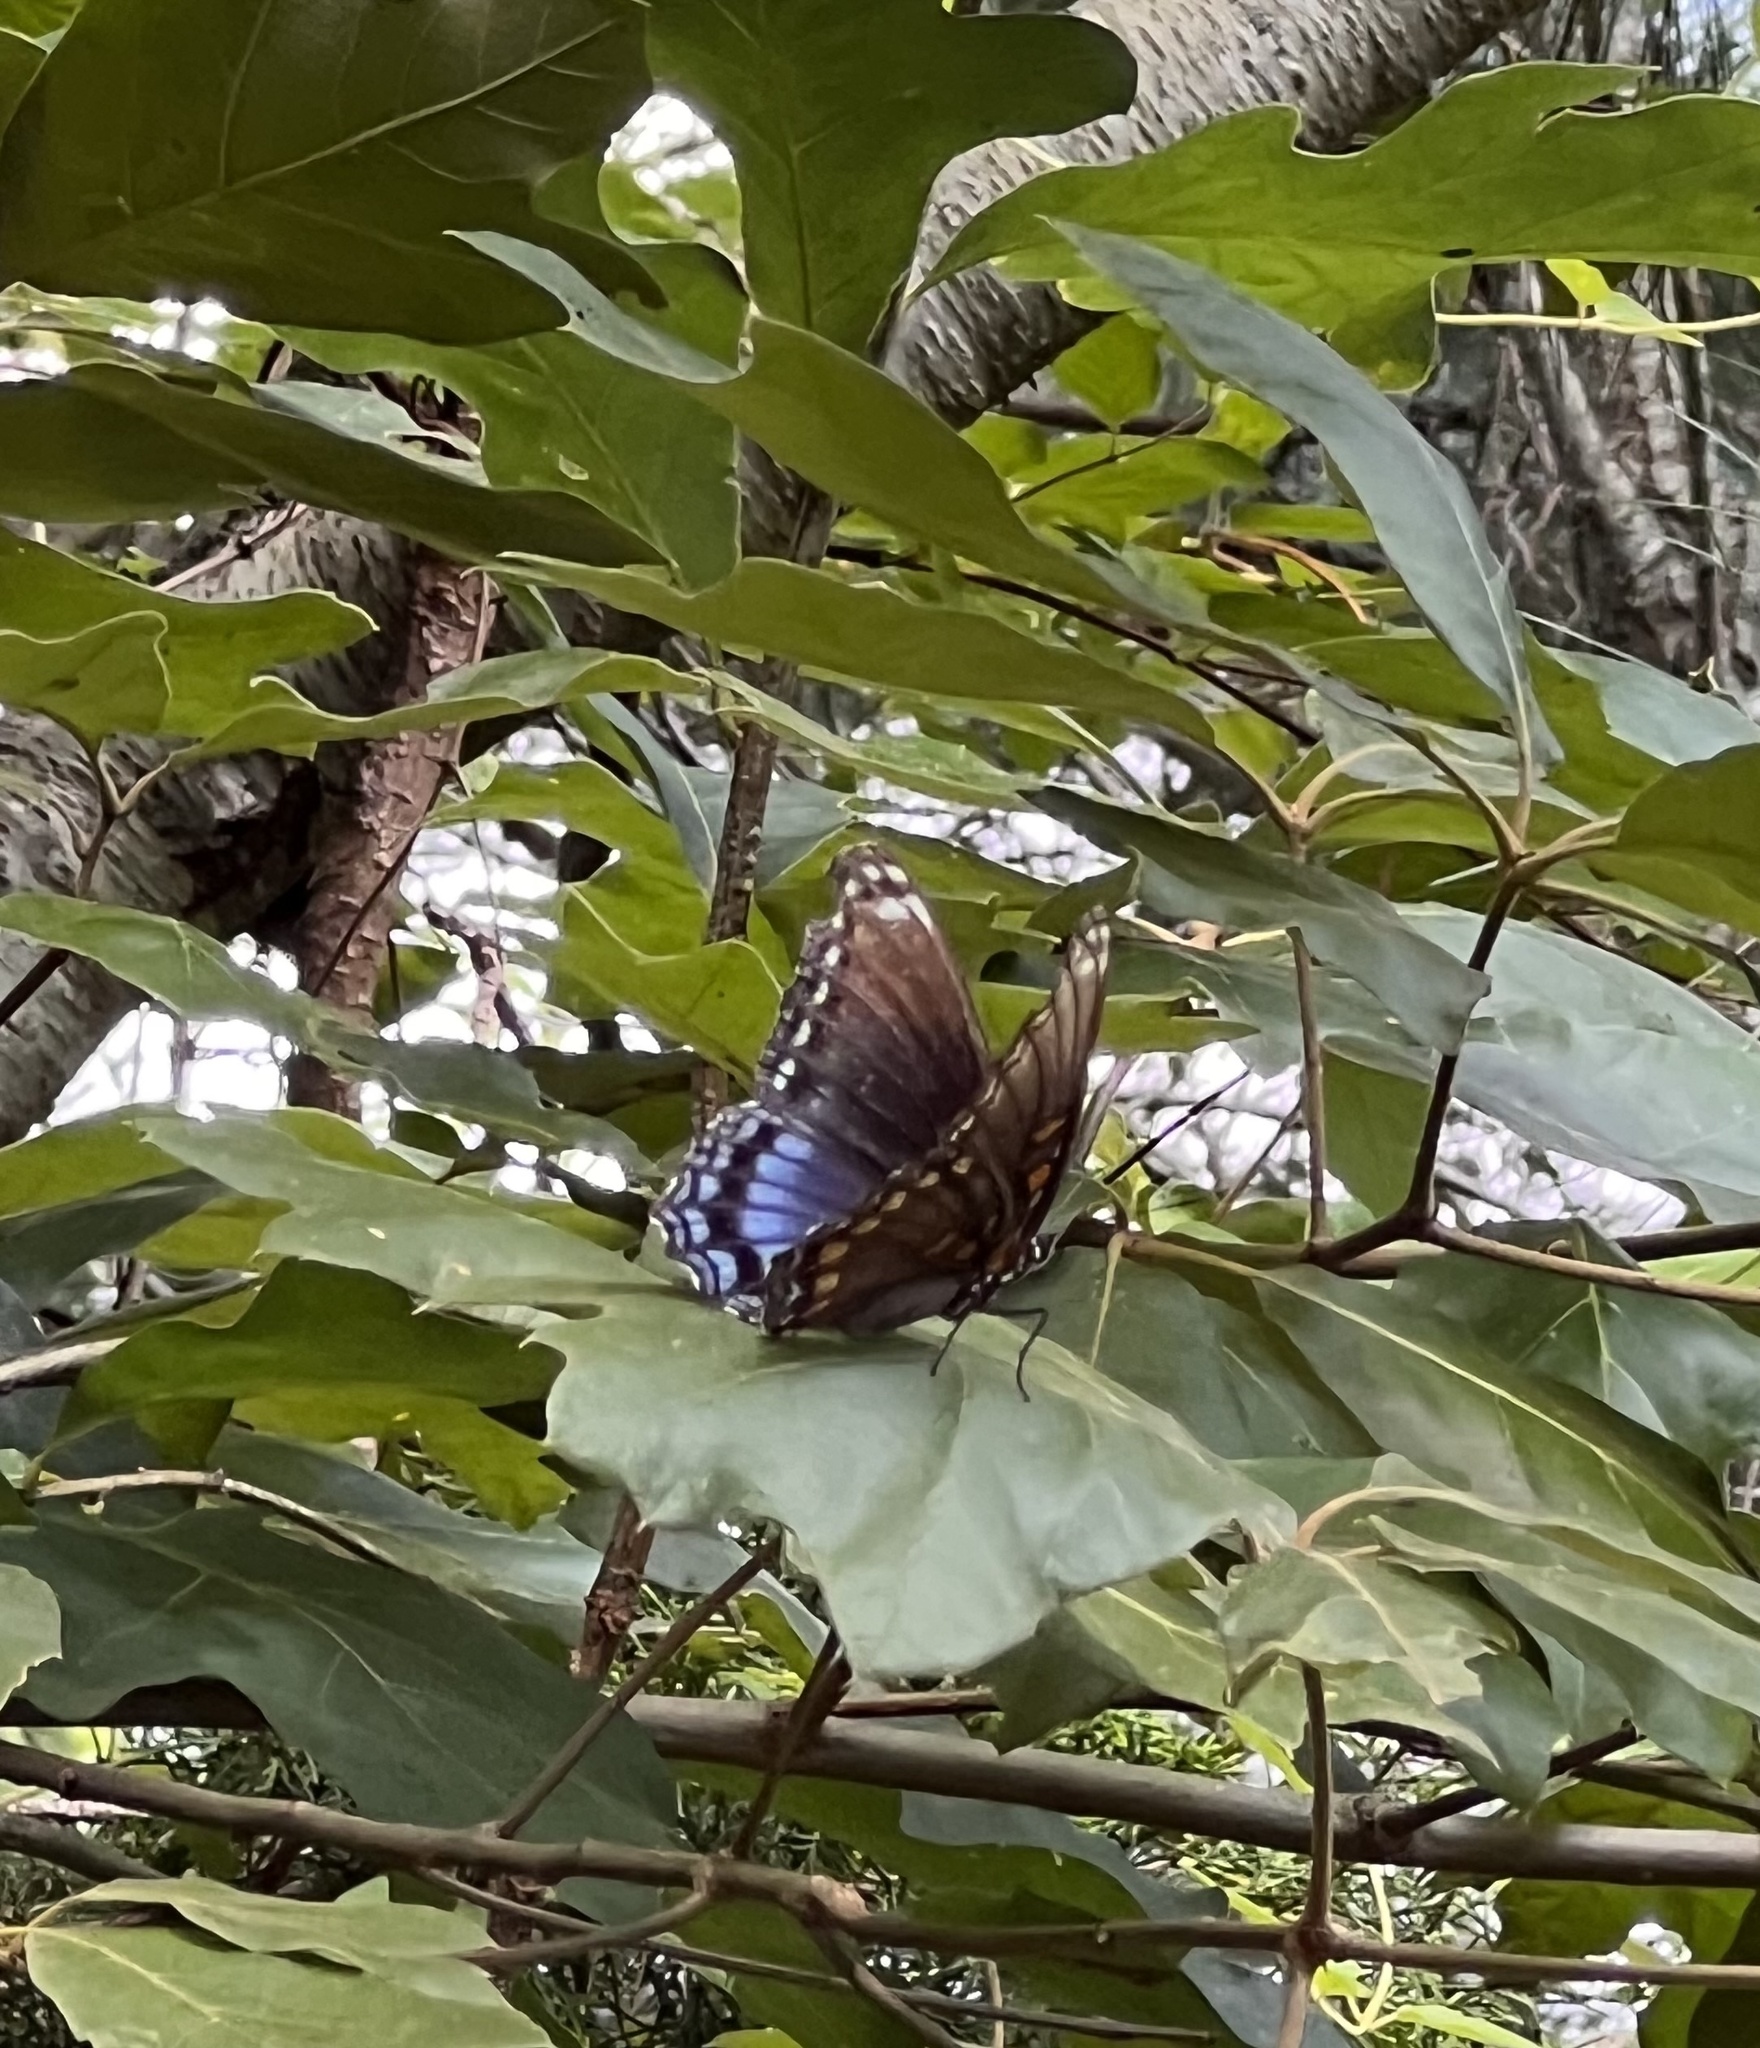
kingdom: Animalia
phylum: Arthropoda
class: Insecta
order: Lepidoptera
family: Nymphalidae
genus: Limenitis
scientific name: Limenitis astyanax
